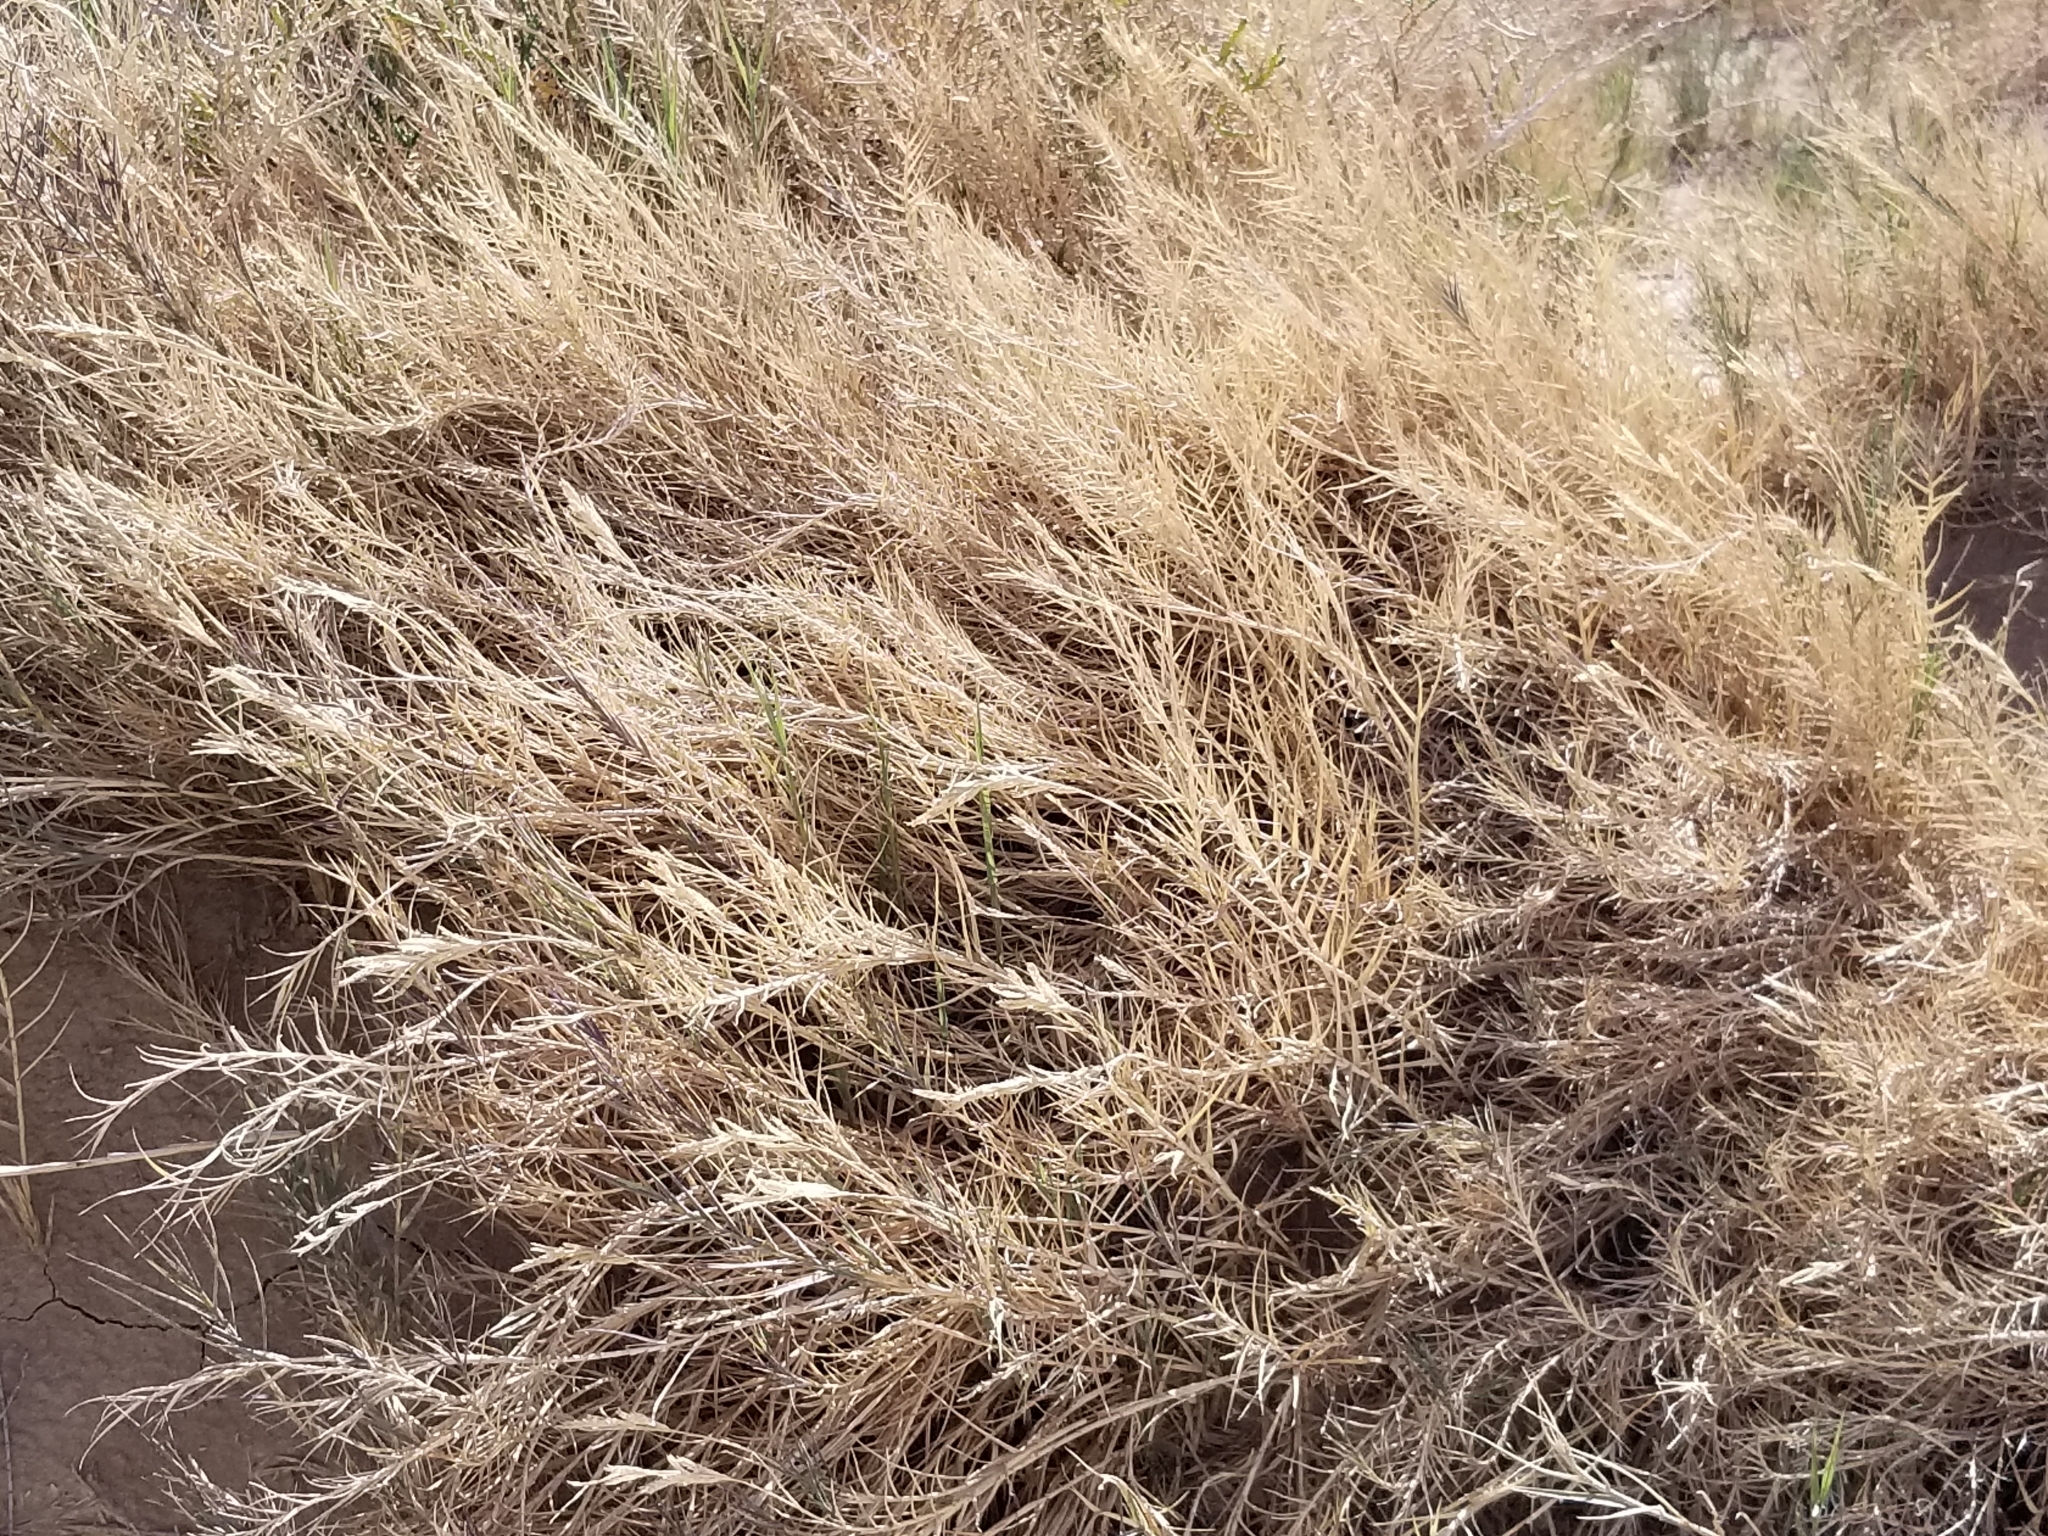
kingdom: Plantae
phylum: Tracheophyta
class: Liliopsida
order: Poales
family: Poaceae
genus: Distichlis
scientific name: Distichlis spicata
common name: Saltgrass
